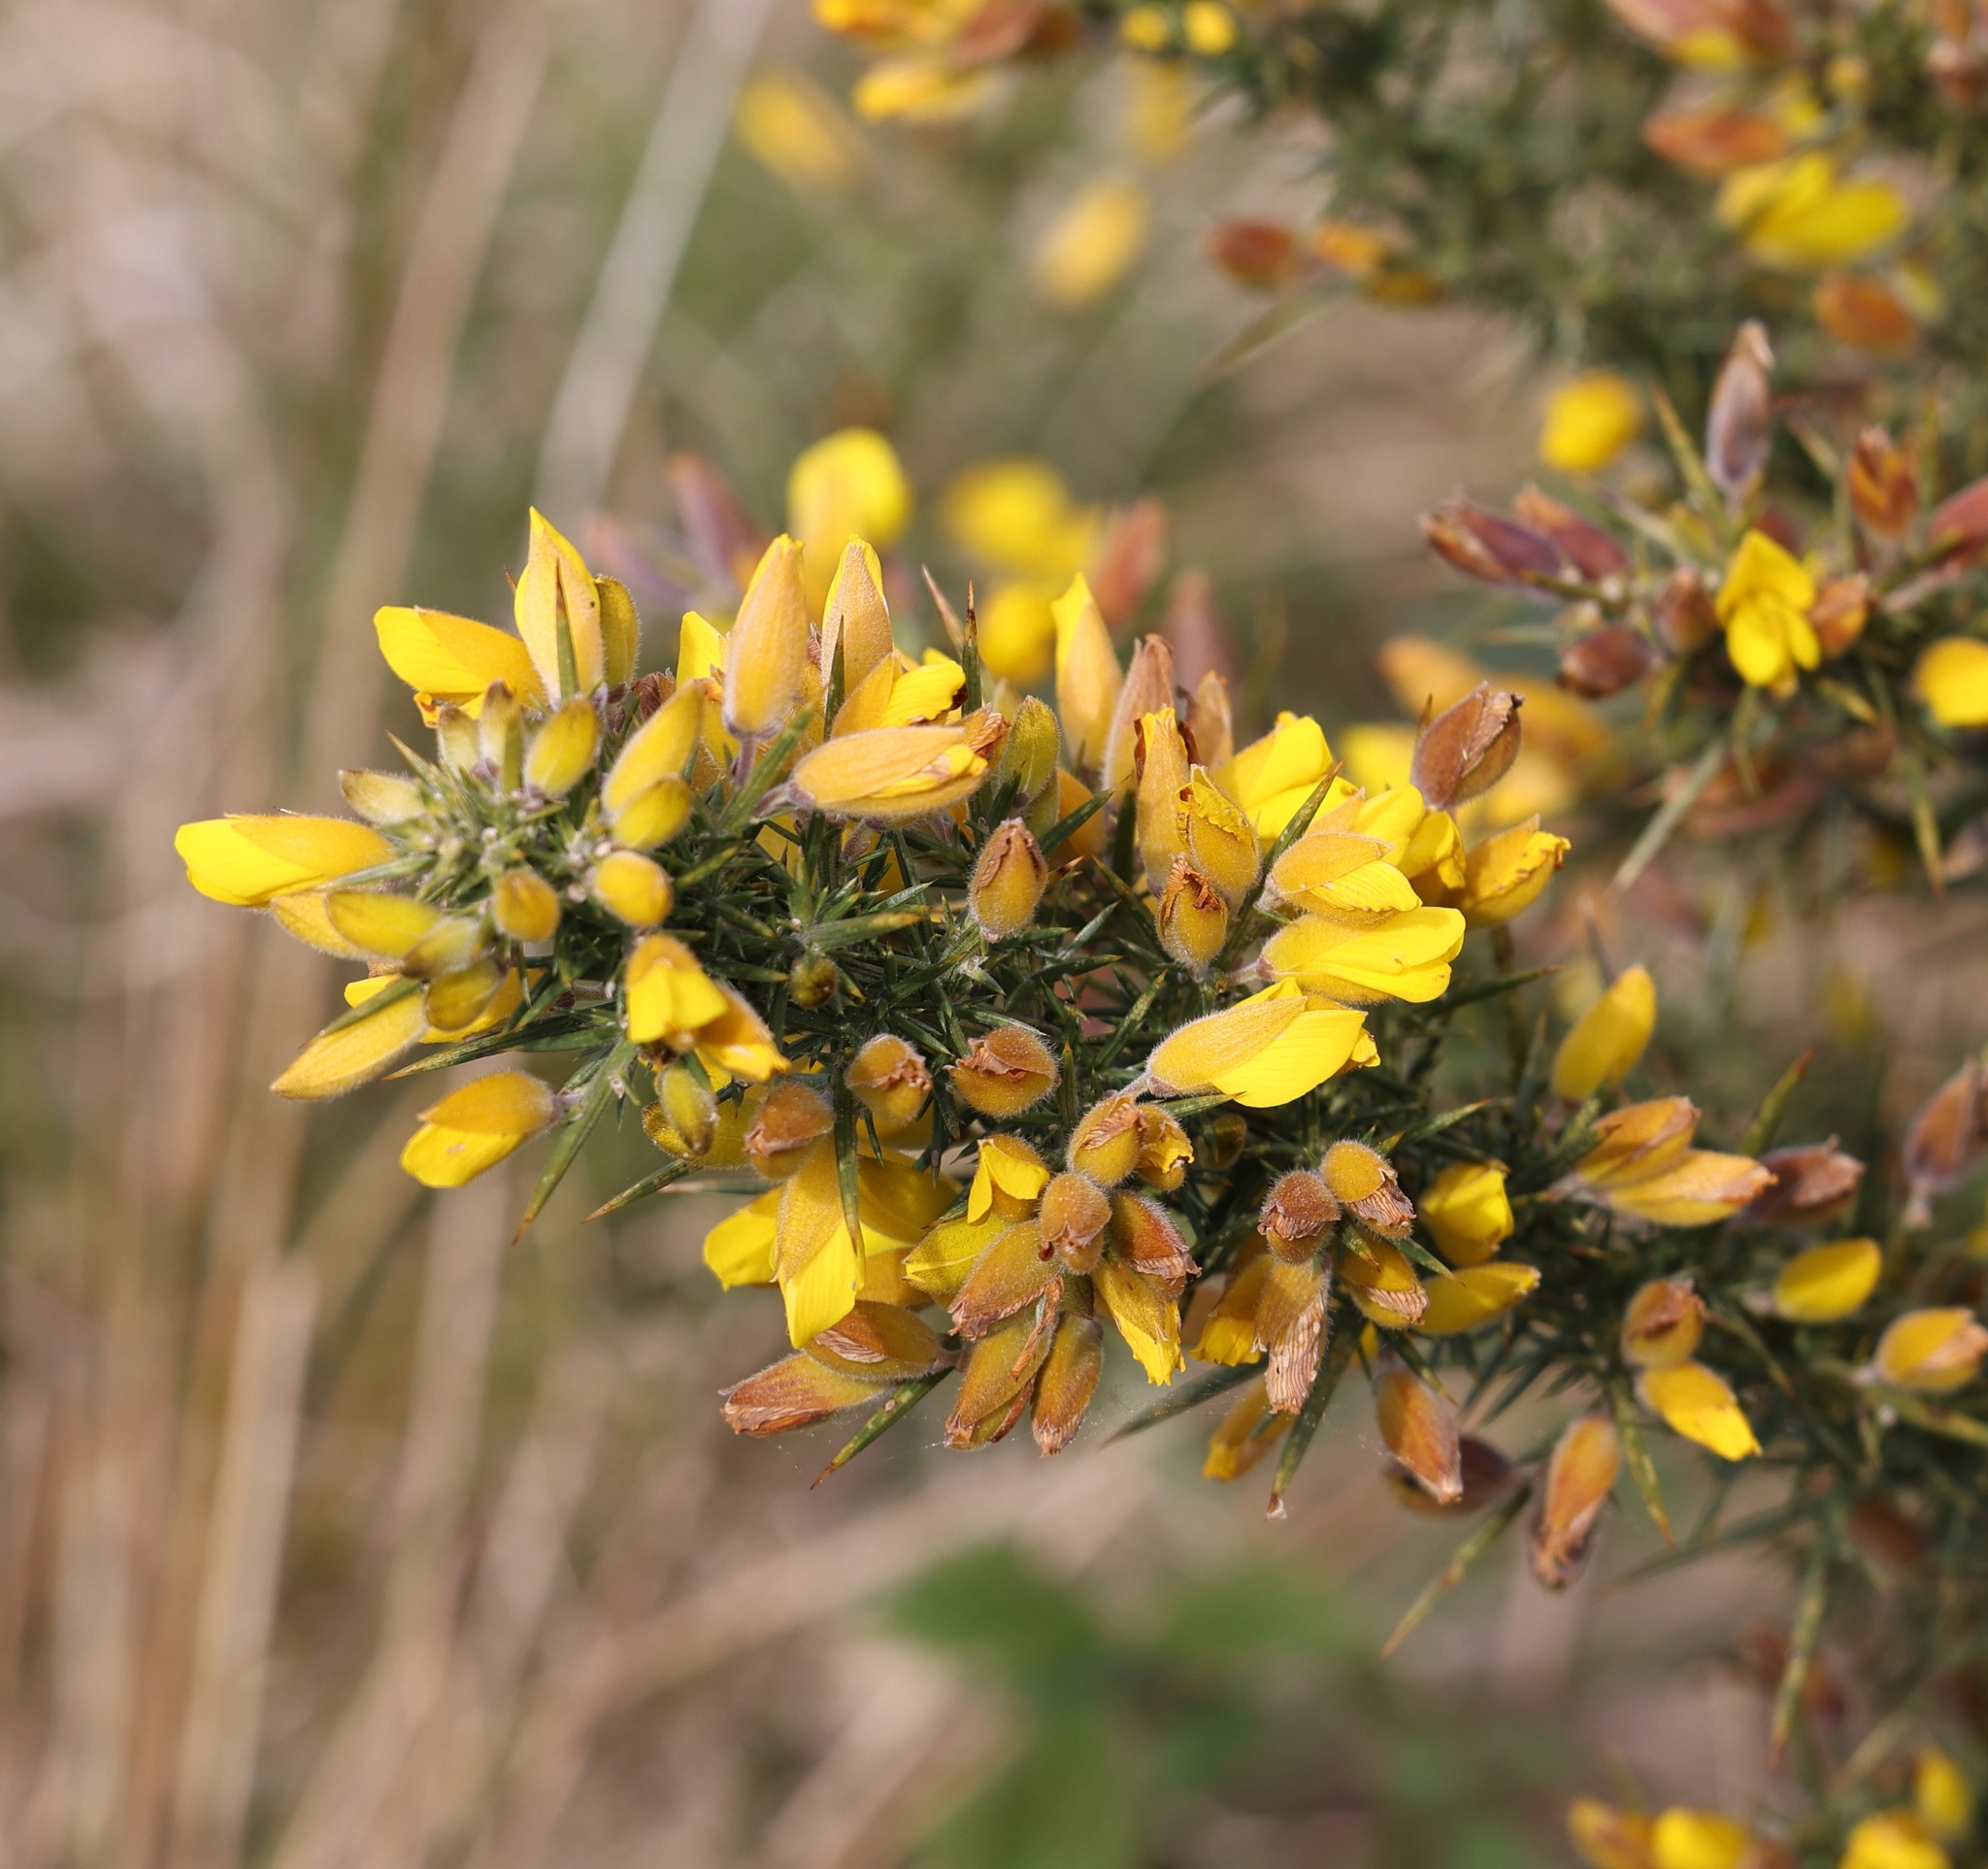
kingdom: Plantae
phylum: Tracheophyta
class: Magnoliopsida
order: Fabales
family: Fabaceae
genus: Ulex
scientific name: Ulex europaeus
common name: Common gorse
